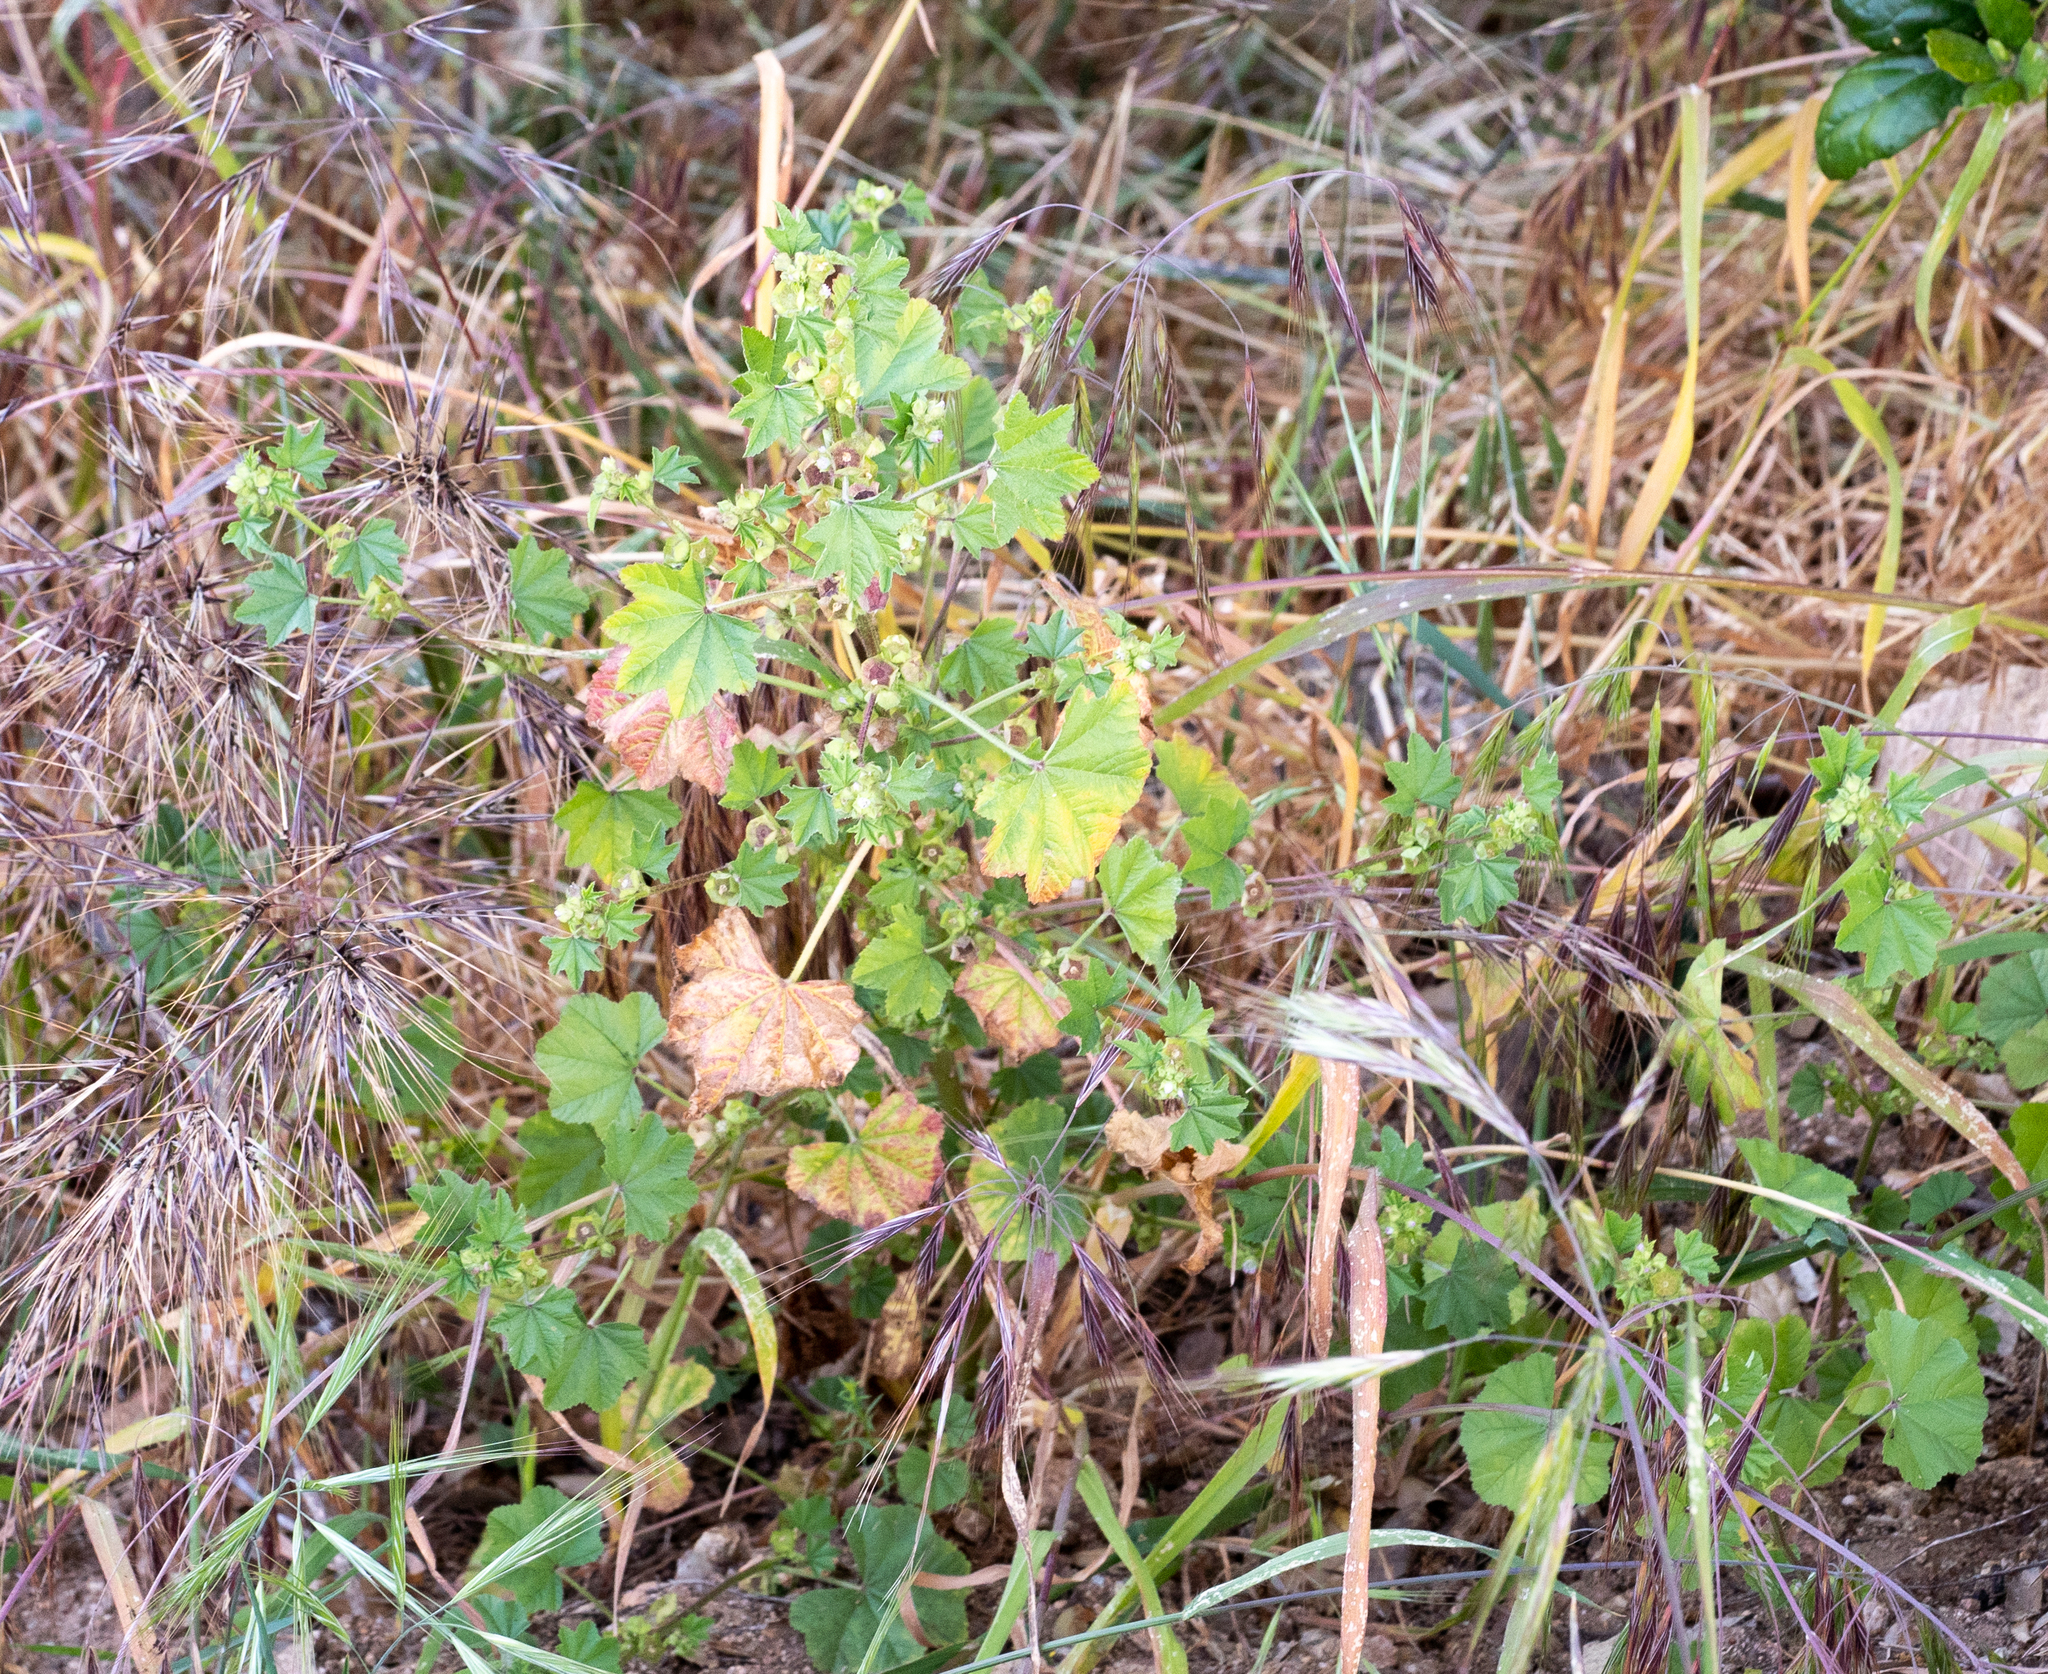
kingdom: Plantae
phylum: Tracheophyta
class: Magnoliopsida
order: Malvales
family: Malvaceae
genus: Malva
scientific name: Malva parviflora
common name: Least mallow
